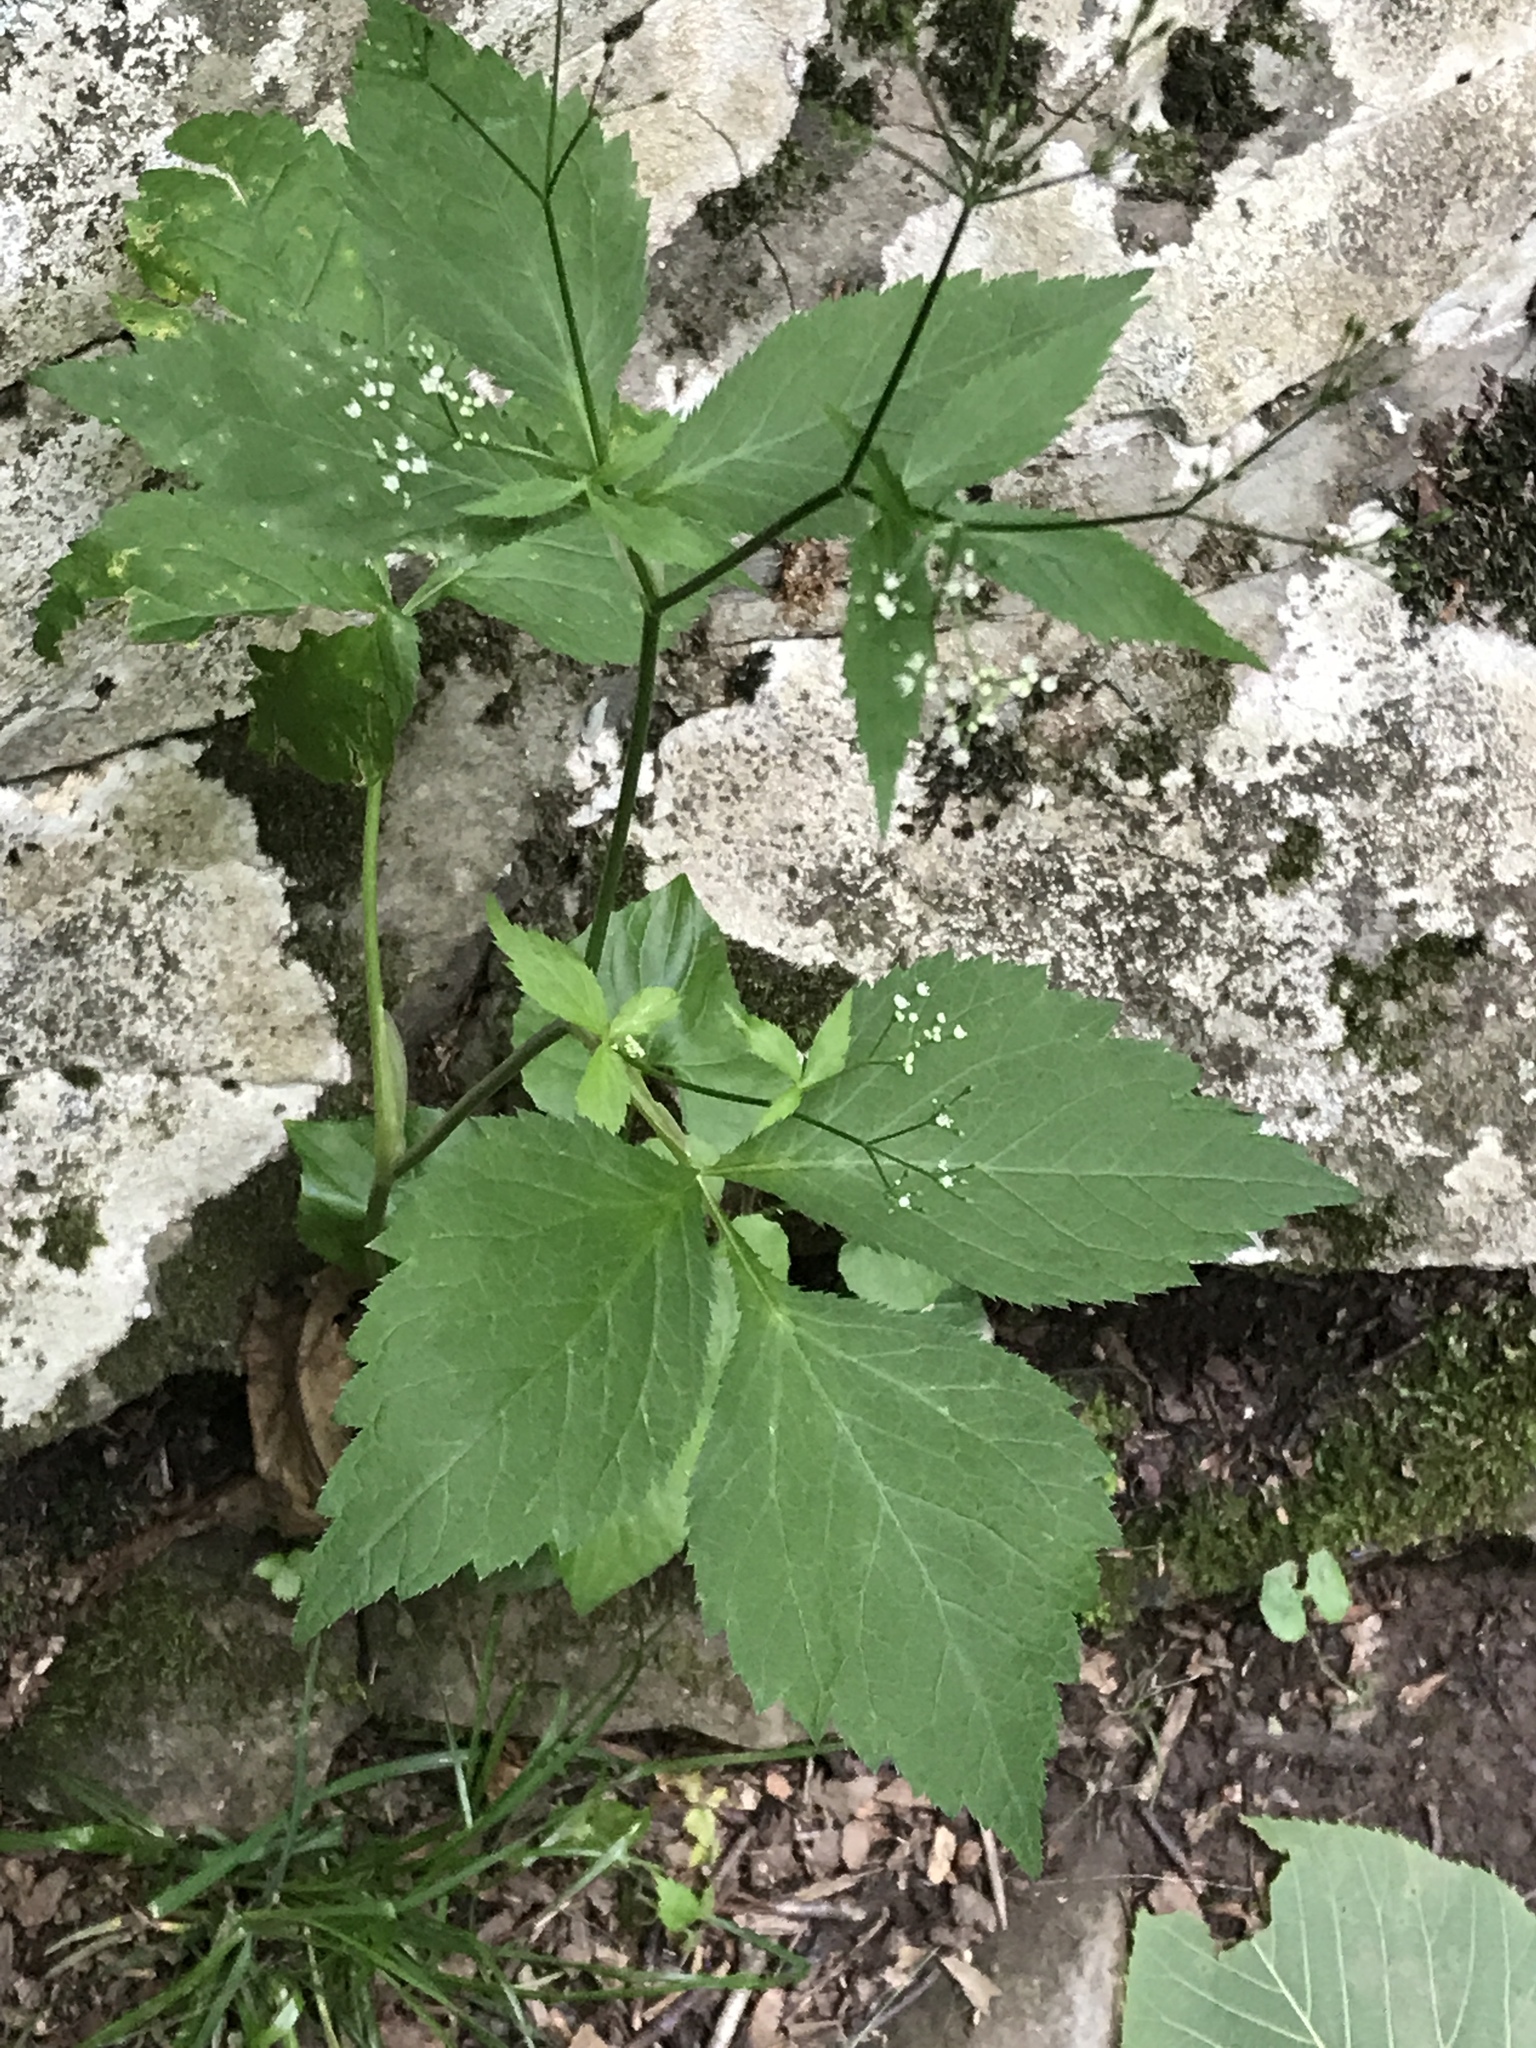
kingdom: Plantae
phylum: Tracheophyta
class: Magnoliopsida
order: Apiales
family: Apiaceae
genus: Cryptotaenia
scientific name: Cryptotaenia canadensis
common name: Honewort
